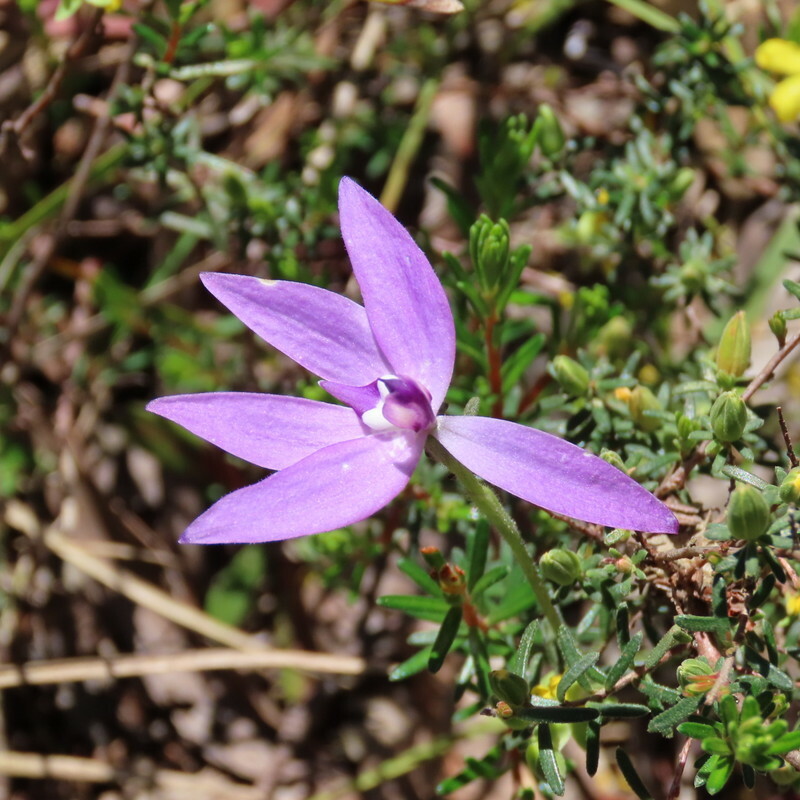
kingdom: Plantae
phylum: Tracheophyta
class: Liliopsida
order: Asparagales
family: Orchidaceae
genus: Caladenia
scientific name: Caladenia major
